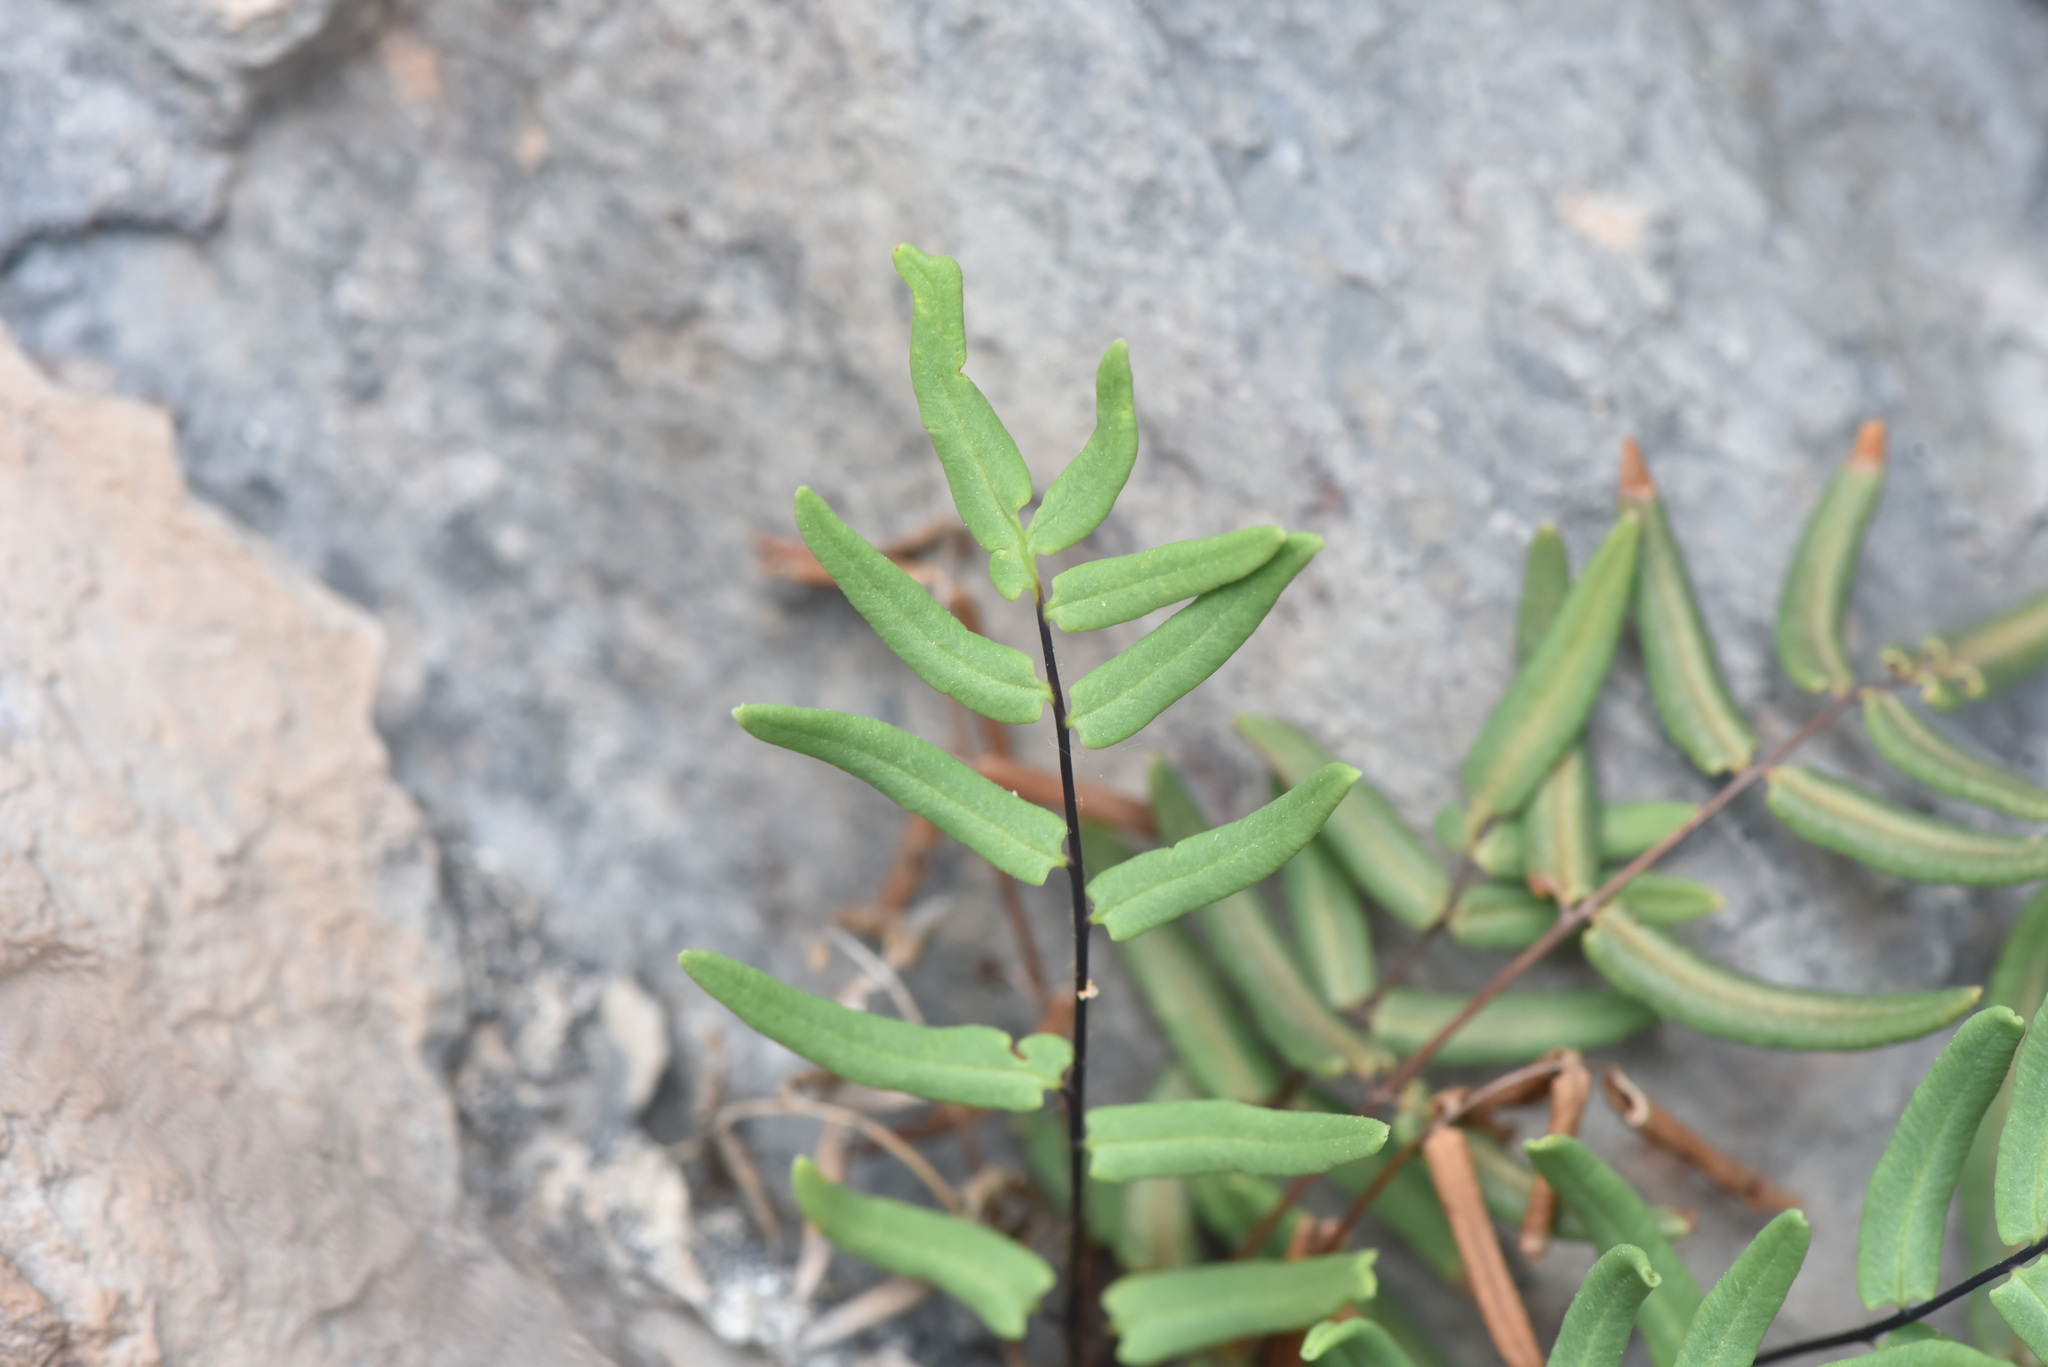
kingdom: Plantae
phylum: Tracheophyta
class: Polypodiopsida
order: Polypodiales
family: Pteridaceae
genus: Pellaea
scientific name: Pellaea glabella
